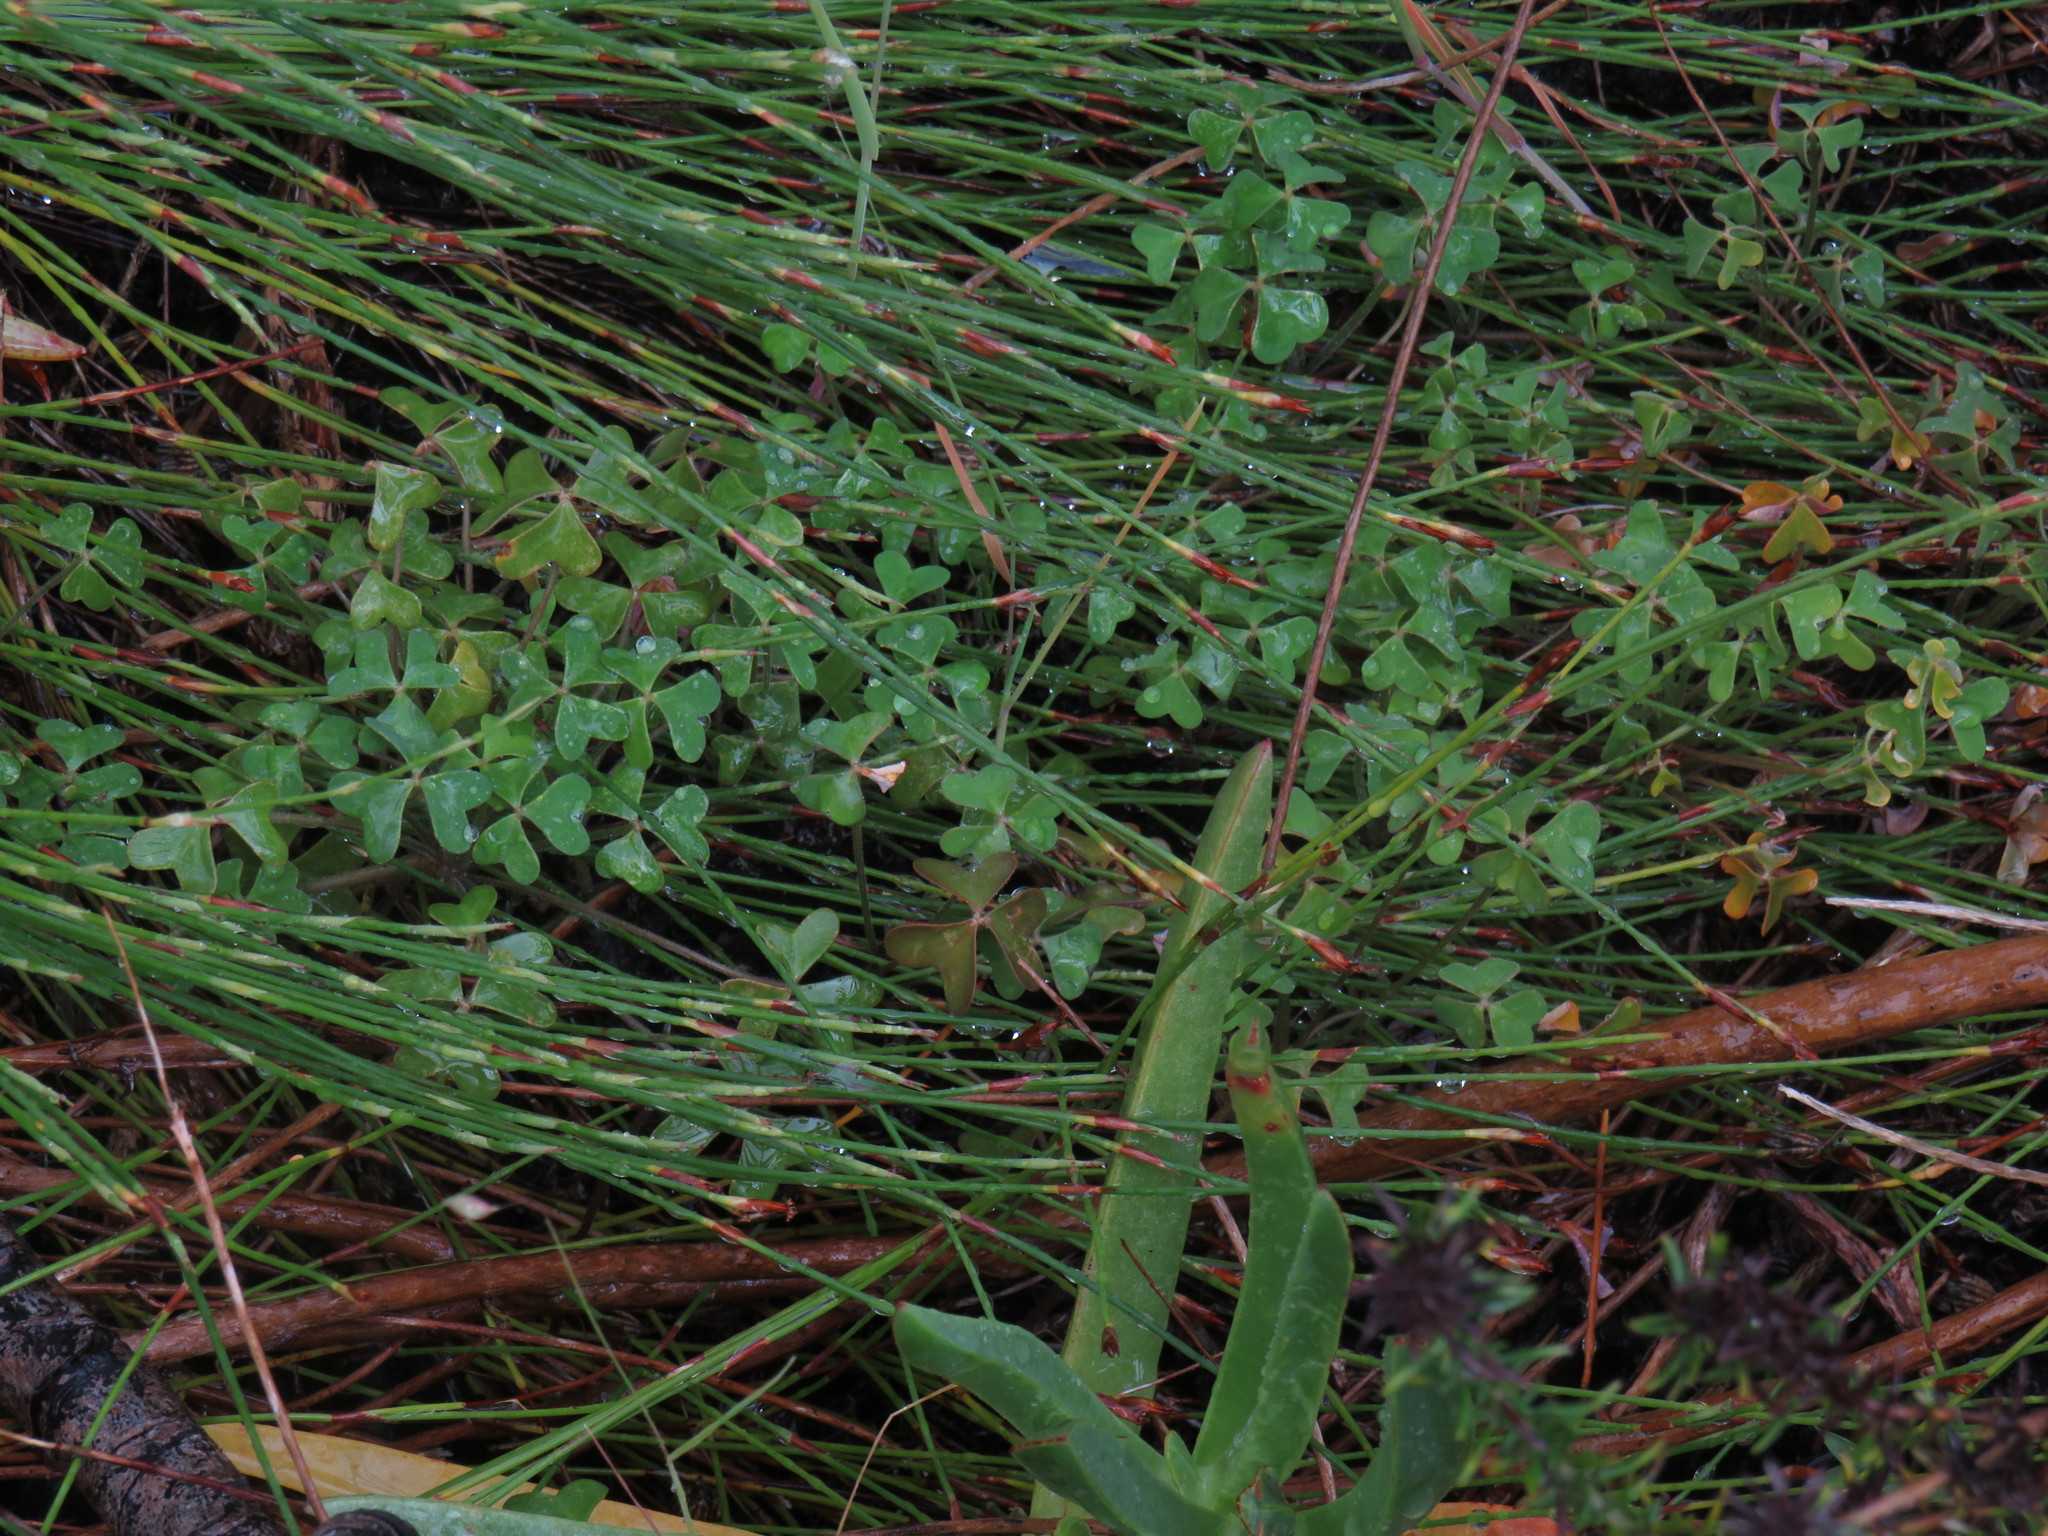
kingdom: Plantae
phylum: Tracheophyta
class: Magnoliopsida
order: Oxalidales
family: Oxalidaceae
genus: Oxalis
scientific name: Oxalis pes-caprae
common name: Bermuda-buttercup
